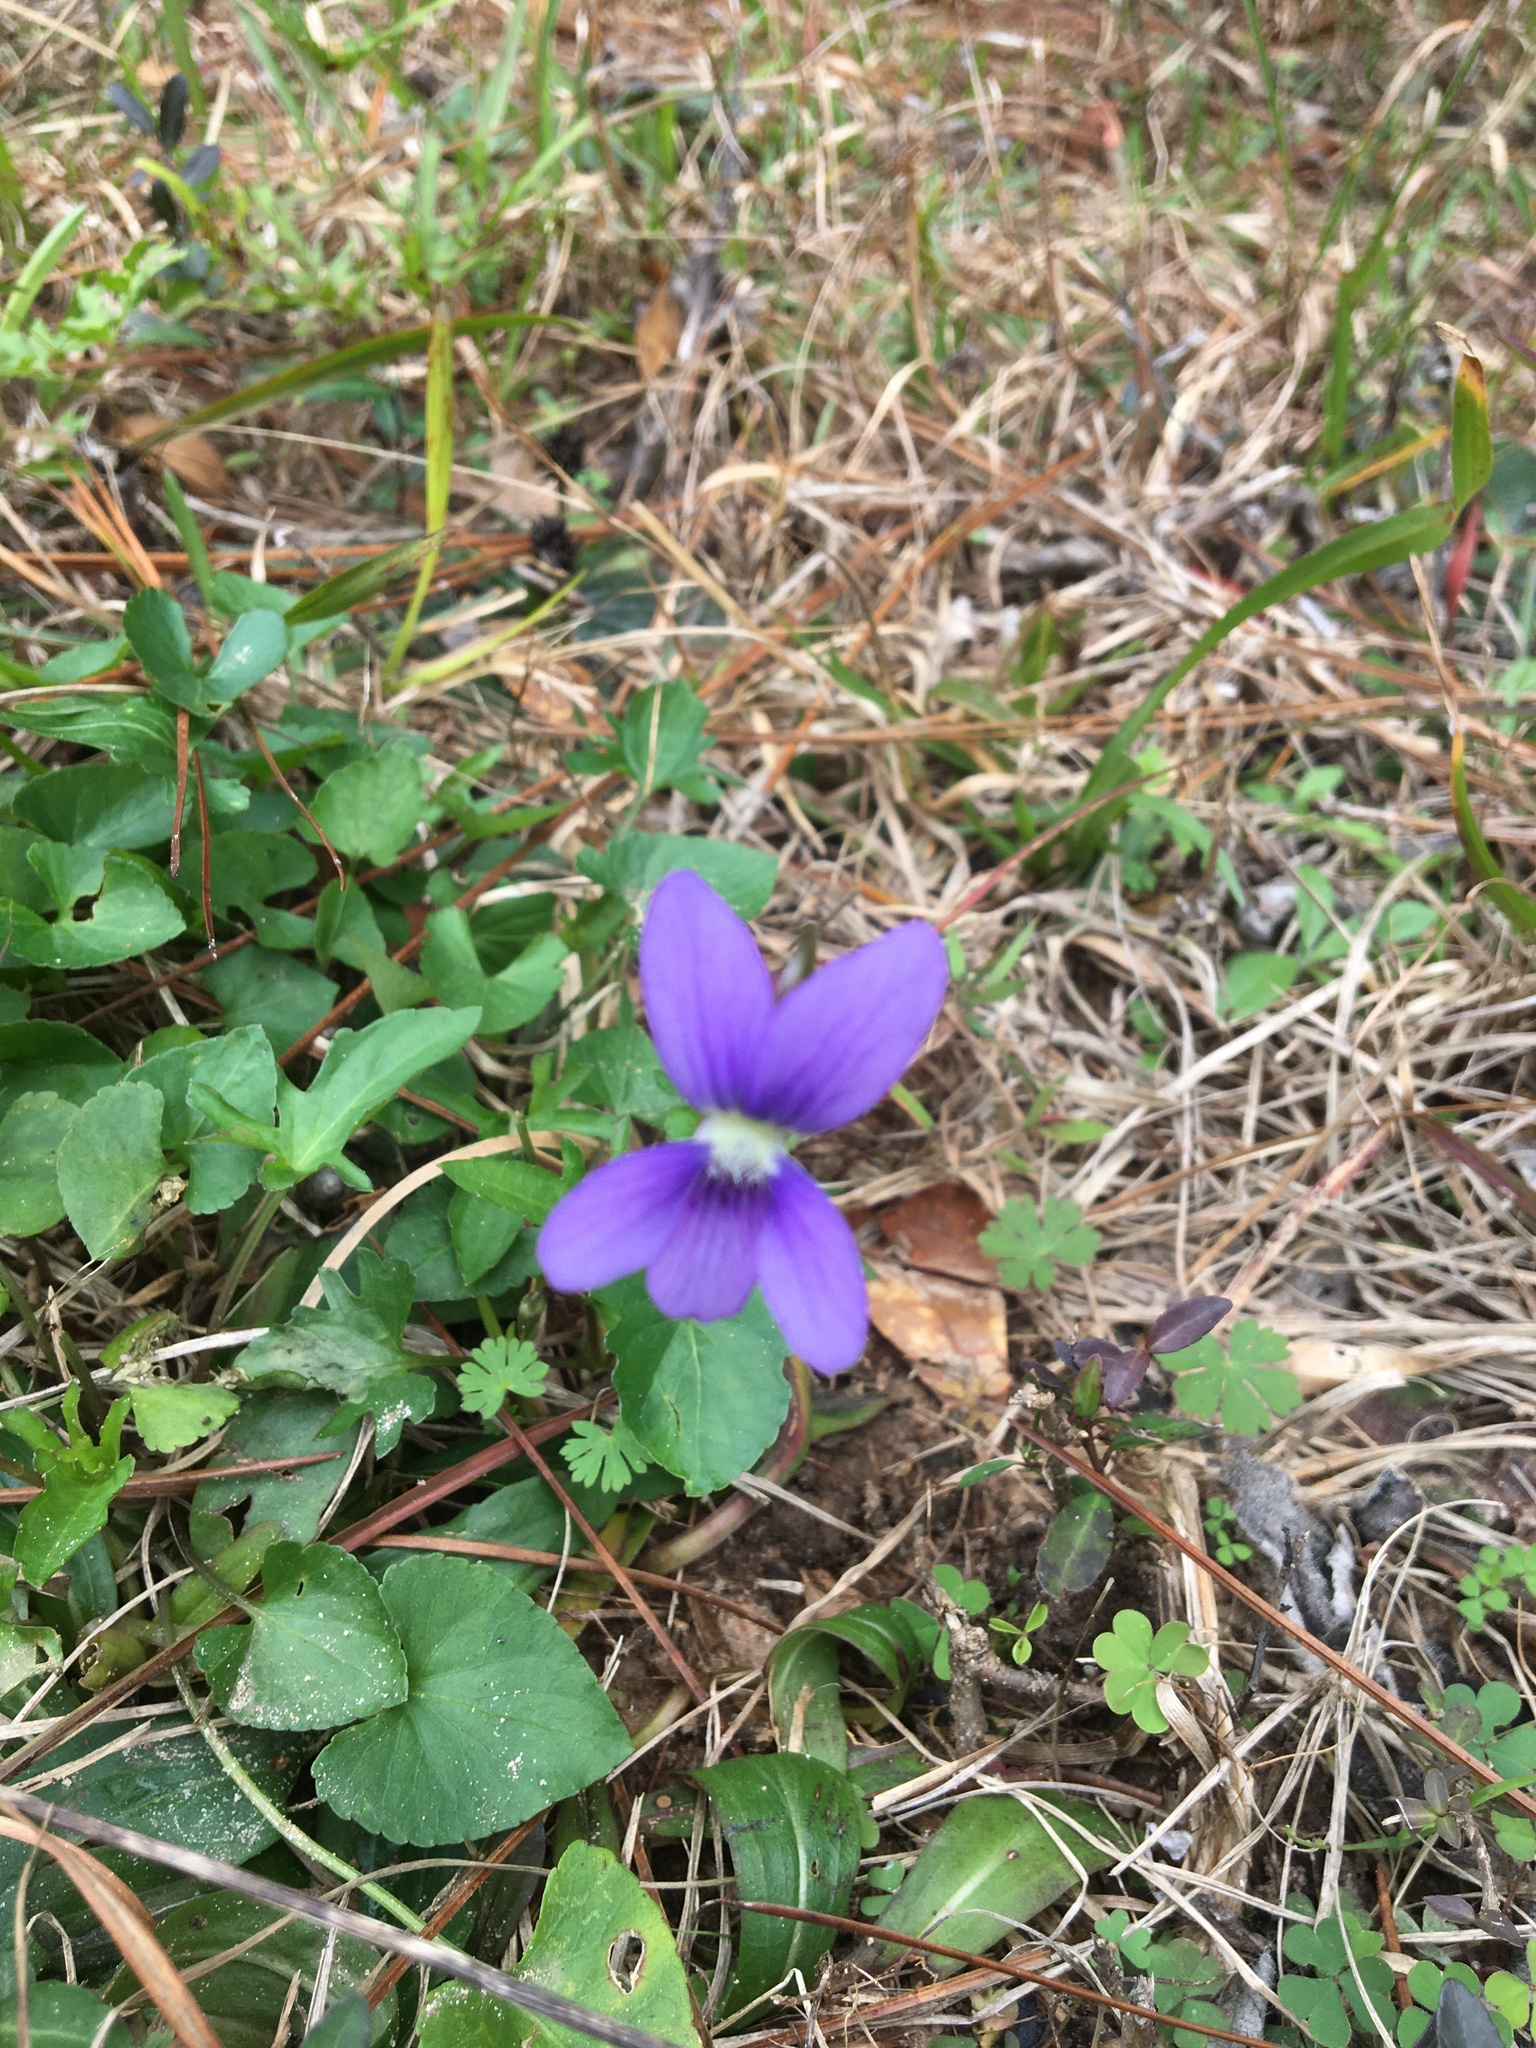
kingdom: Plantae
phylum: Tracheophyta
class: Magnoliopsida
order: Malpighiales
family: Violaceae
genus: Viola
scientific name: Viola sororia
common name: Dooryard violet
